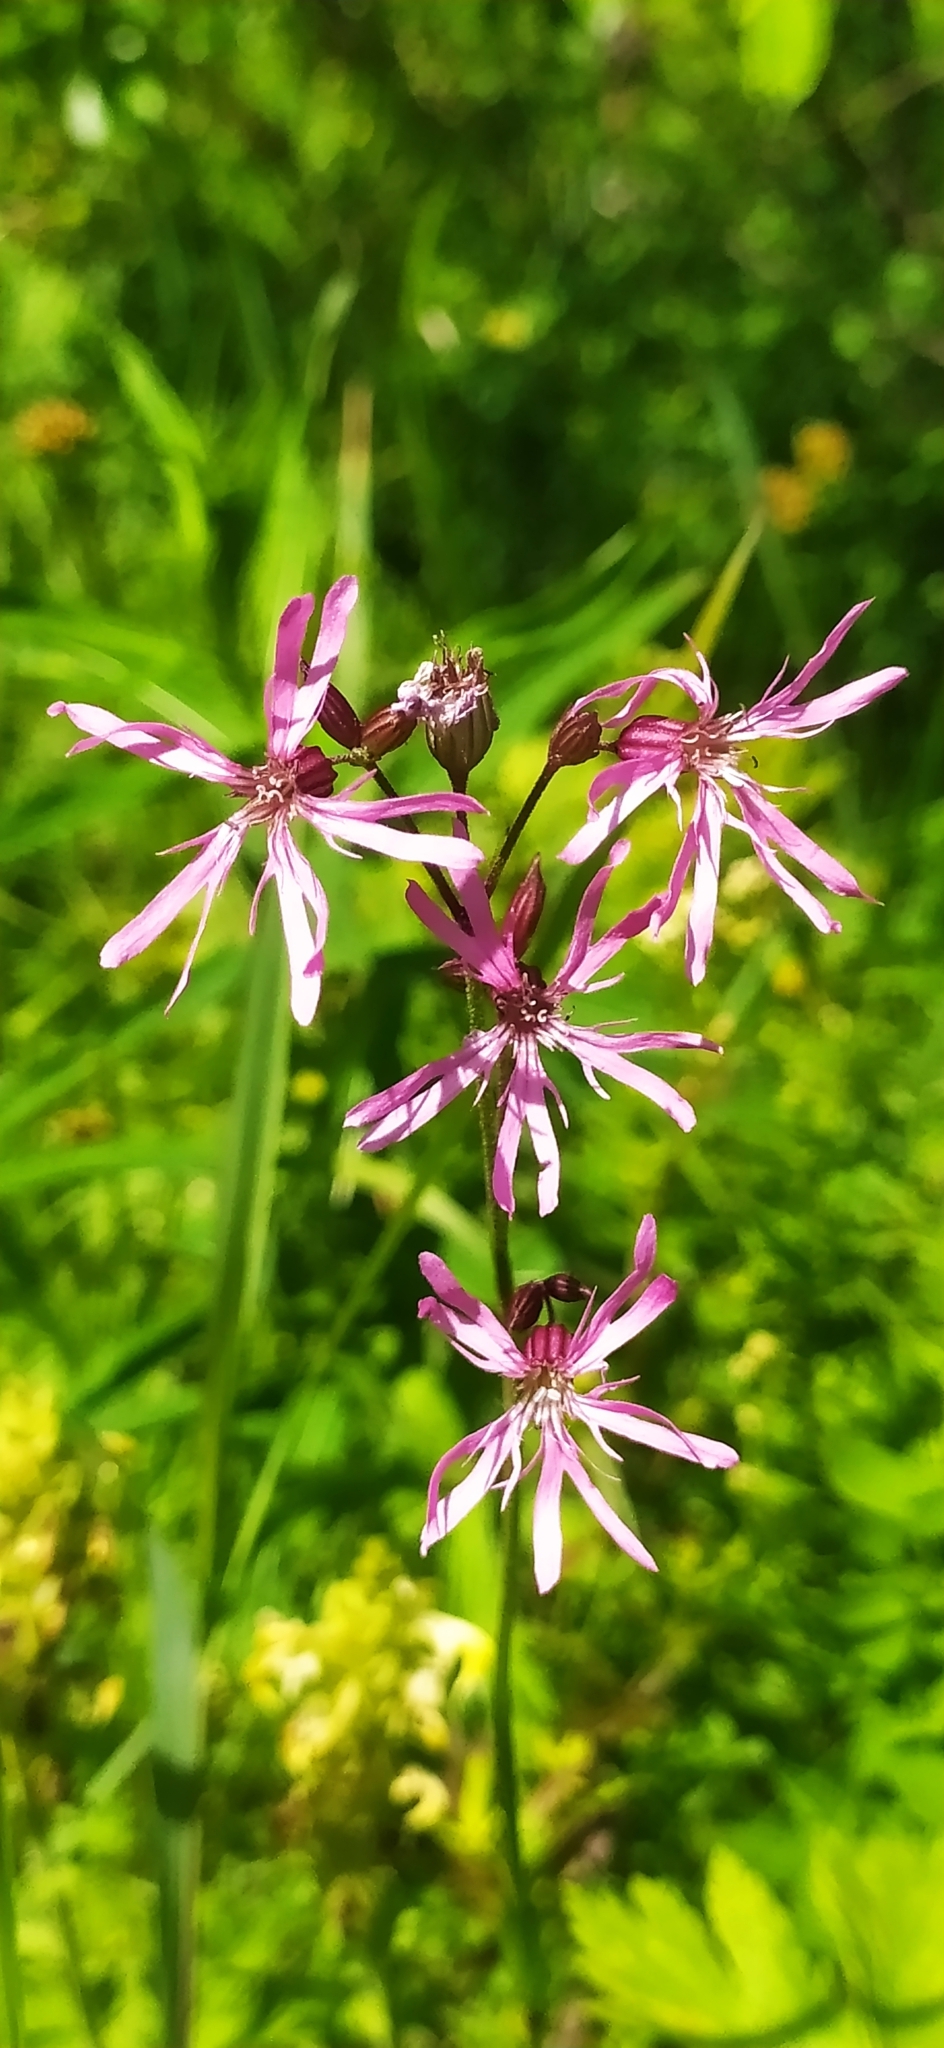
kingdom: Plantae
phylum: Tracheophyta
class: Magnoliopsida
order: Caryophyllales
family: Caryophyllaceae
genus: Silene
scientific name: Silene flos-cuculi
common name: Ragged-robin
